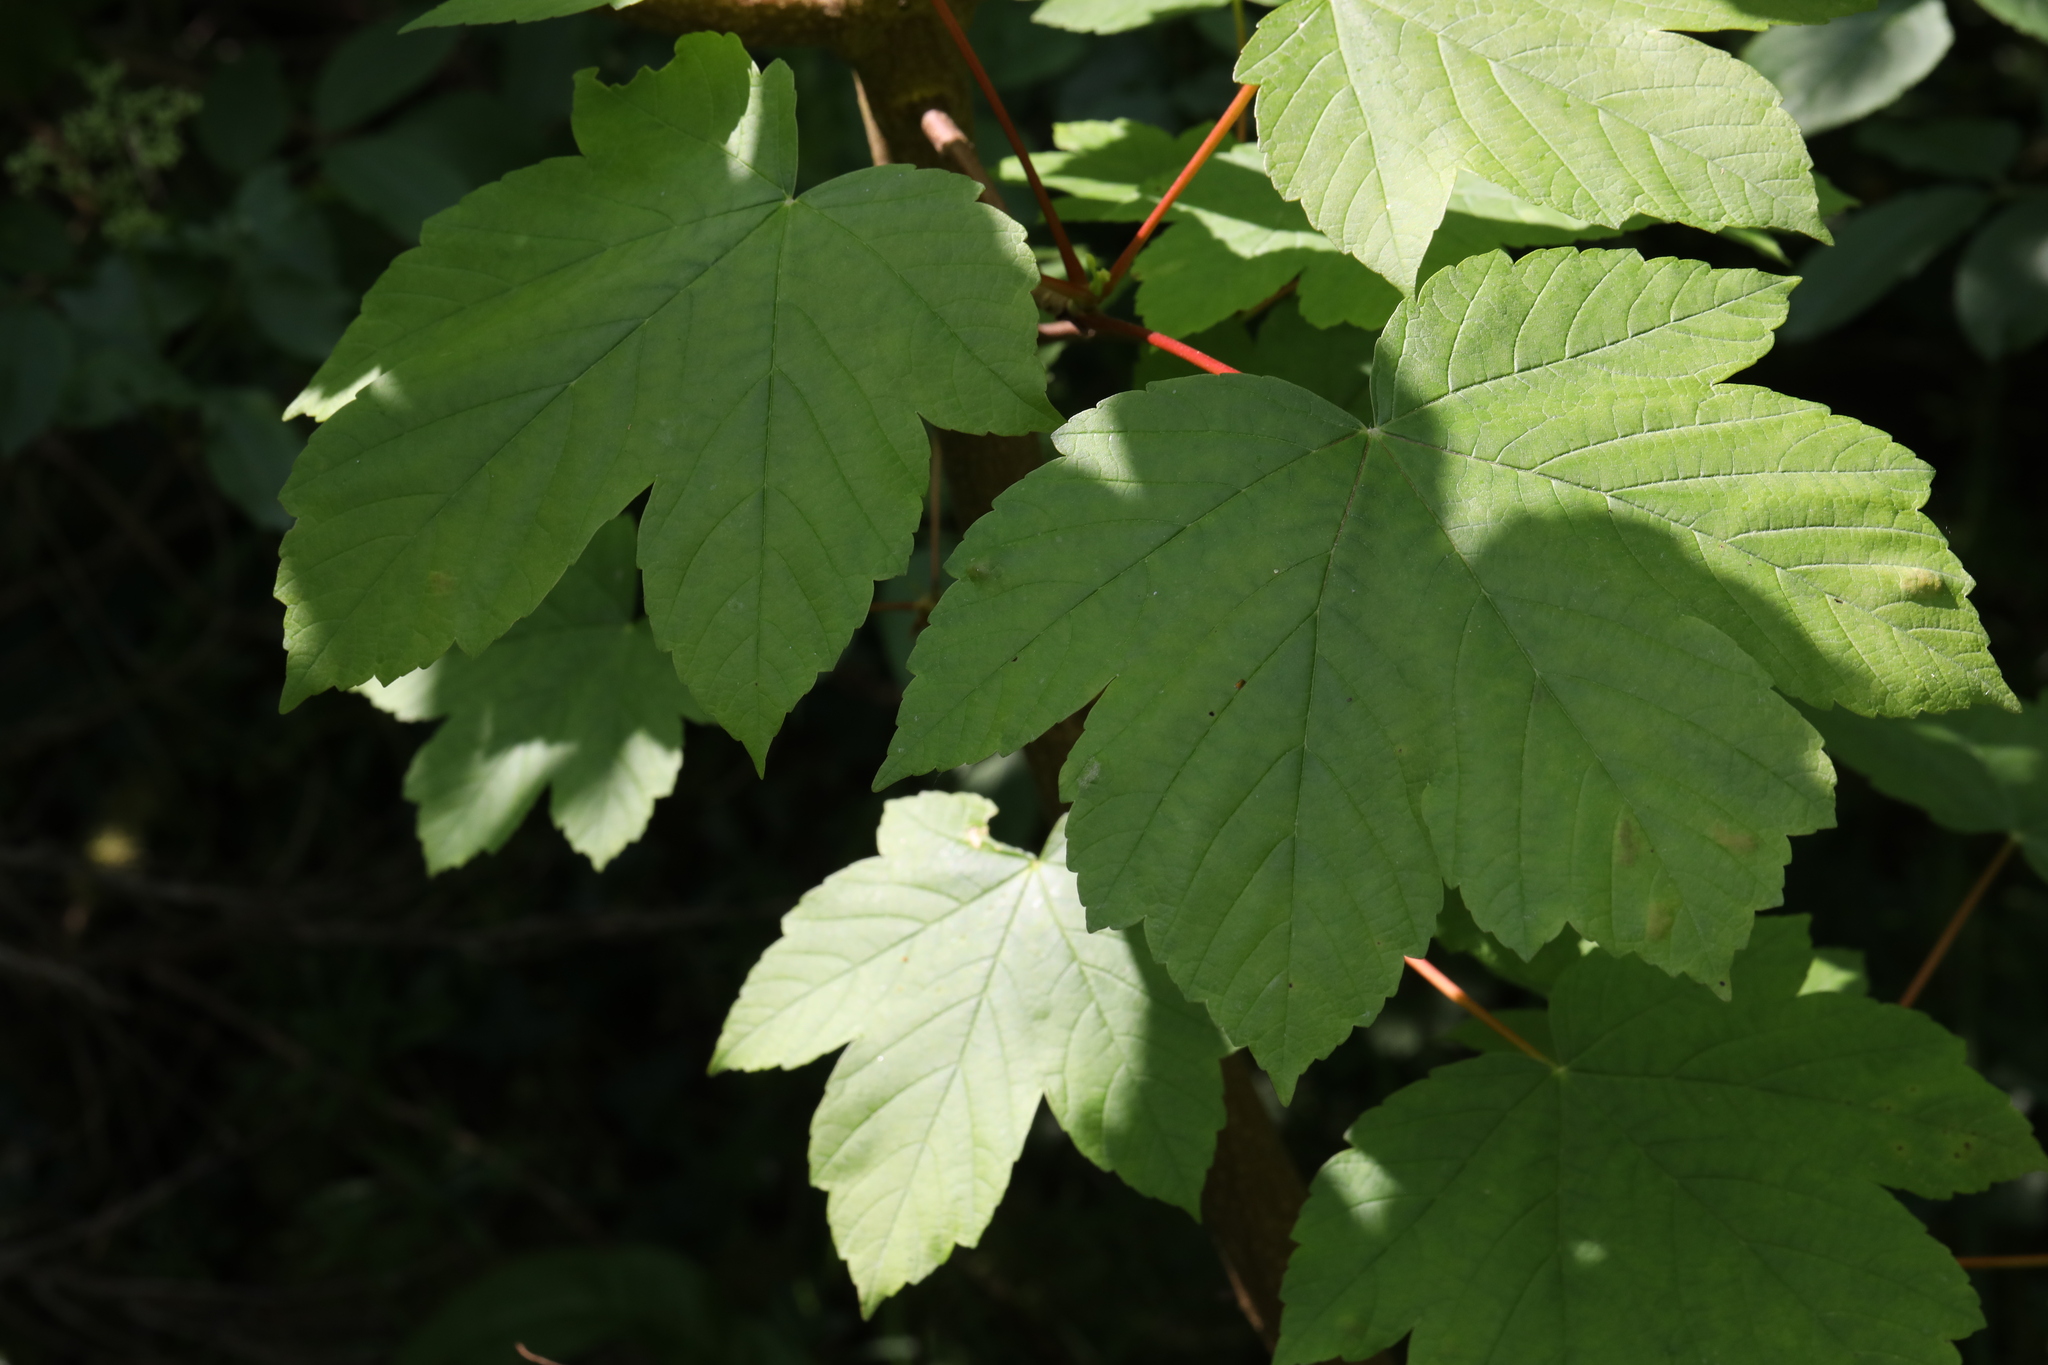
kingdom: Plantae
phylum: Tracheophyta
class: Magnoliopsida
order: Sapindales
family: Sapindaceae
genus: Acer
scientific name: Acer pseudoplatanus
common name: Sycamore
